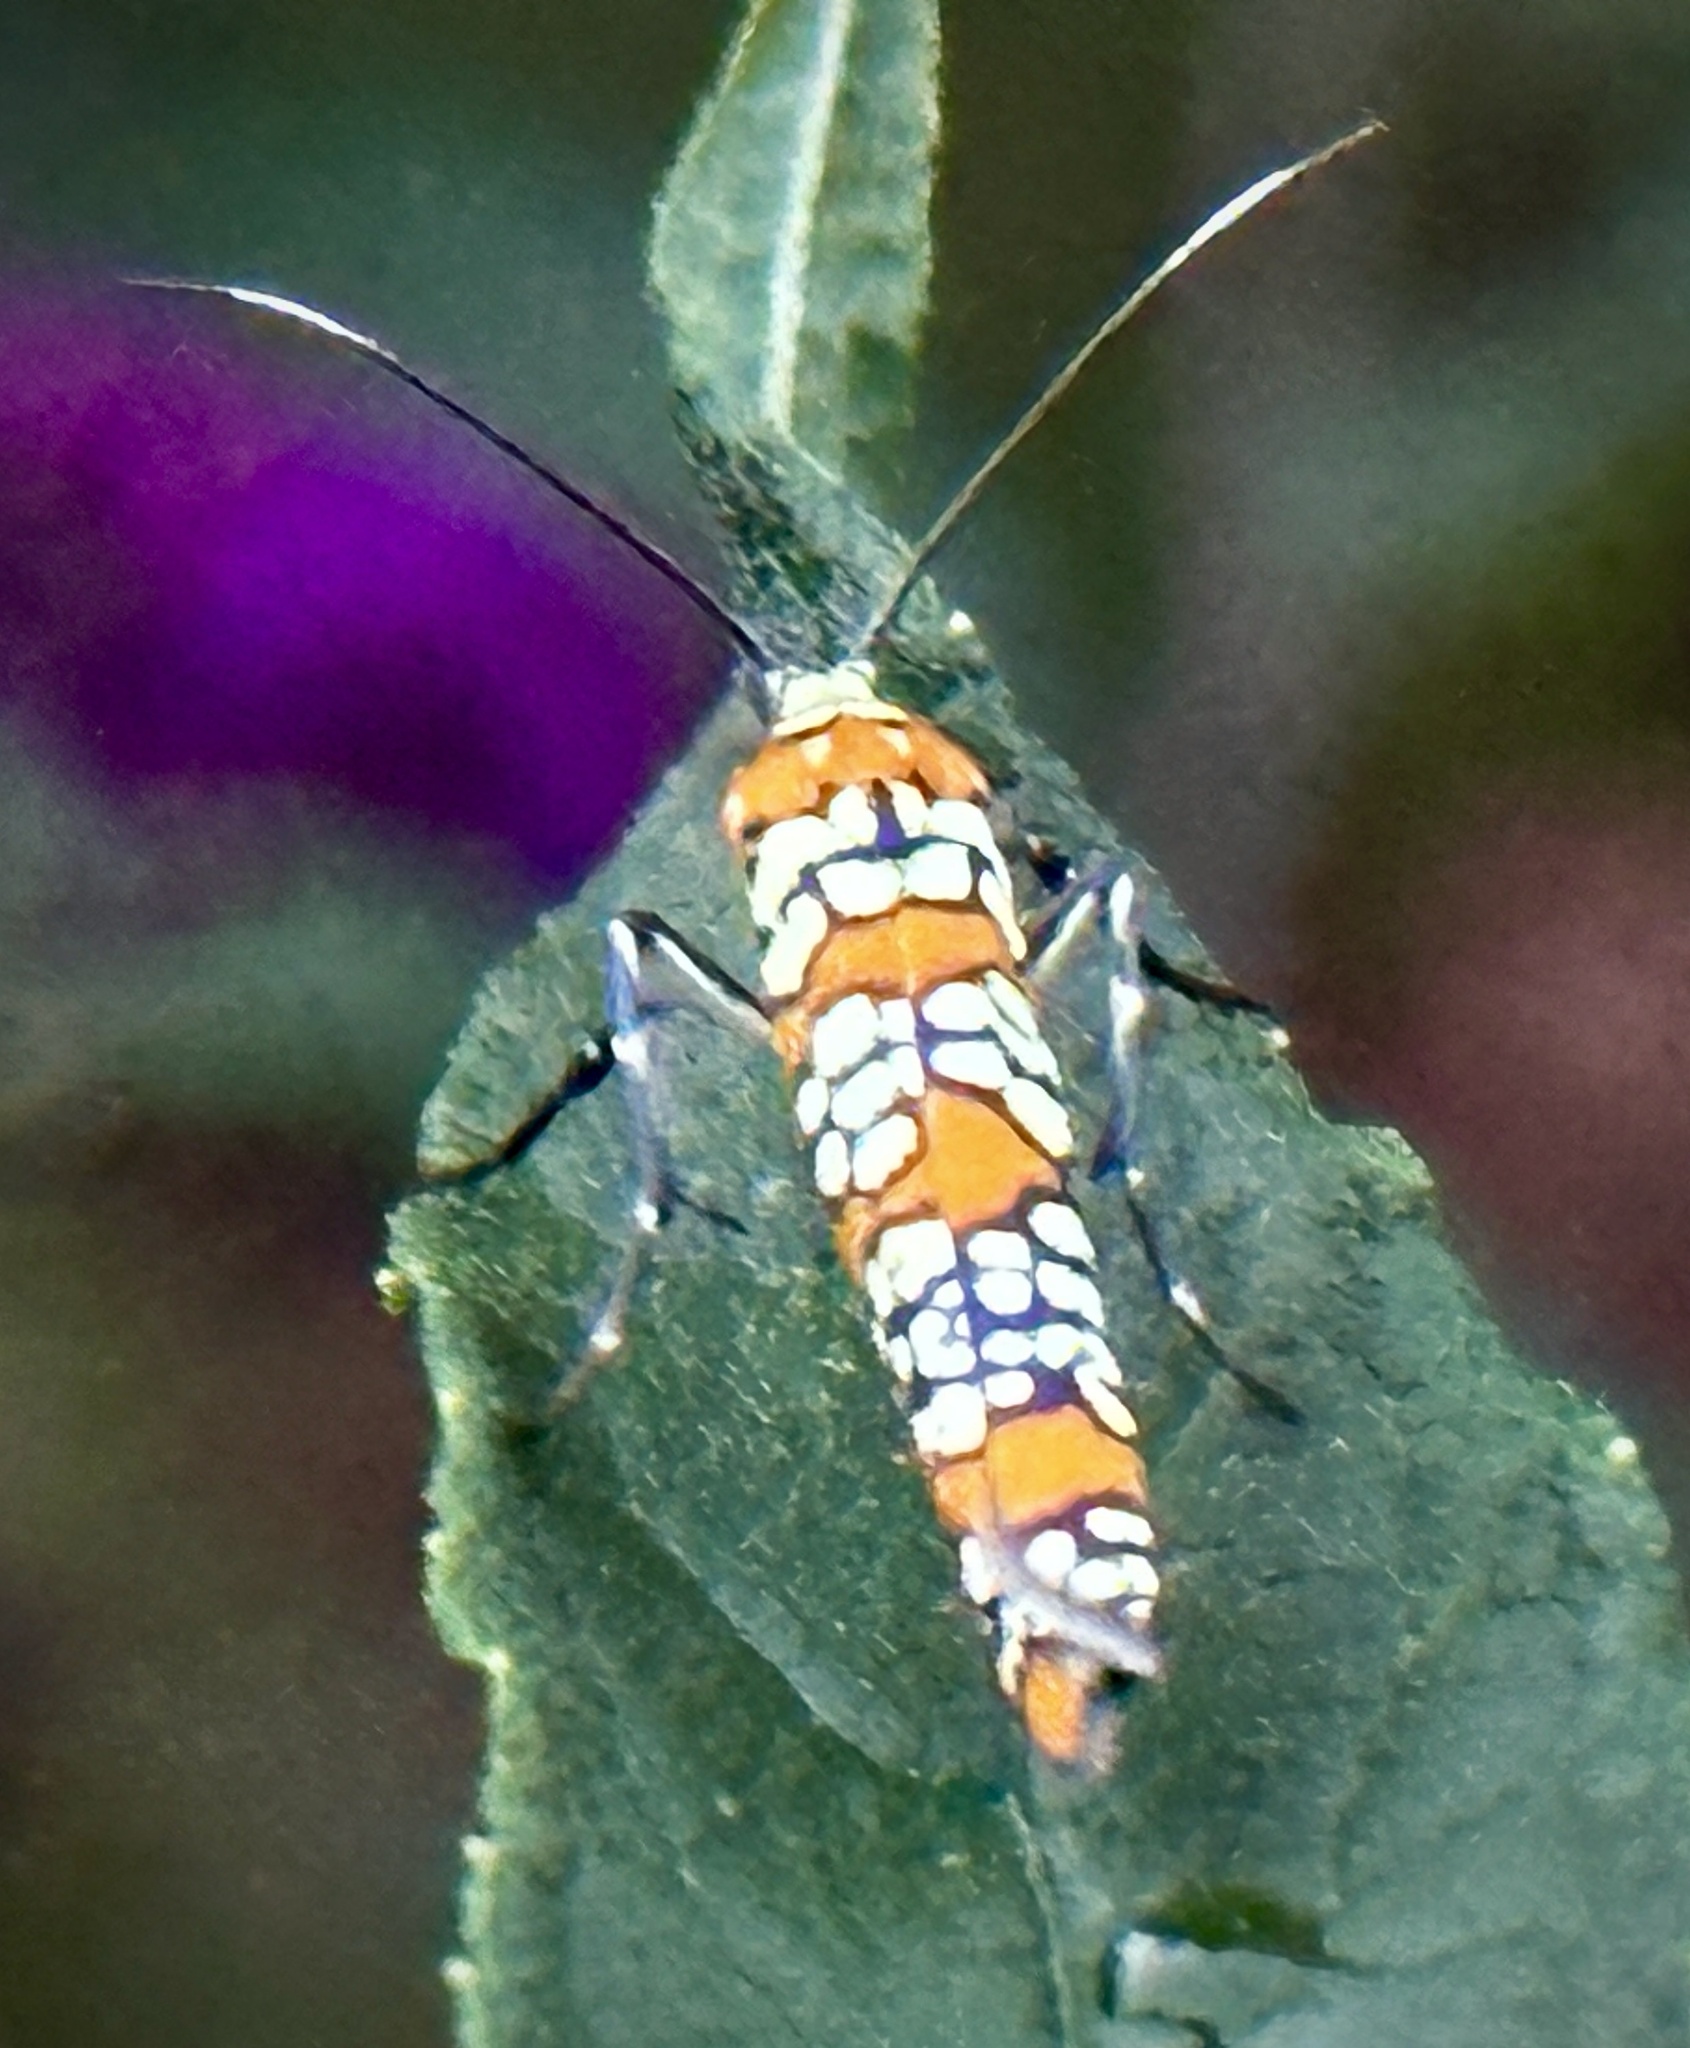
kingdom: Animalia
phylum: Arthropoda
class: Insecta
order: Lepidoptera
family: Attevidae
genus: Atteva
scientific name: Atteva punctella
